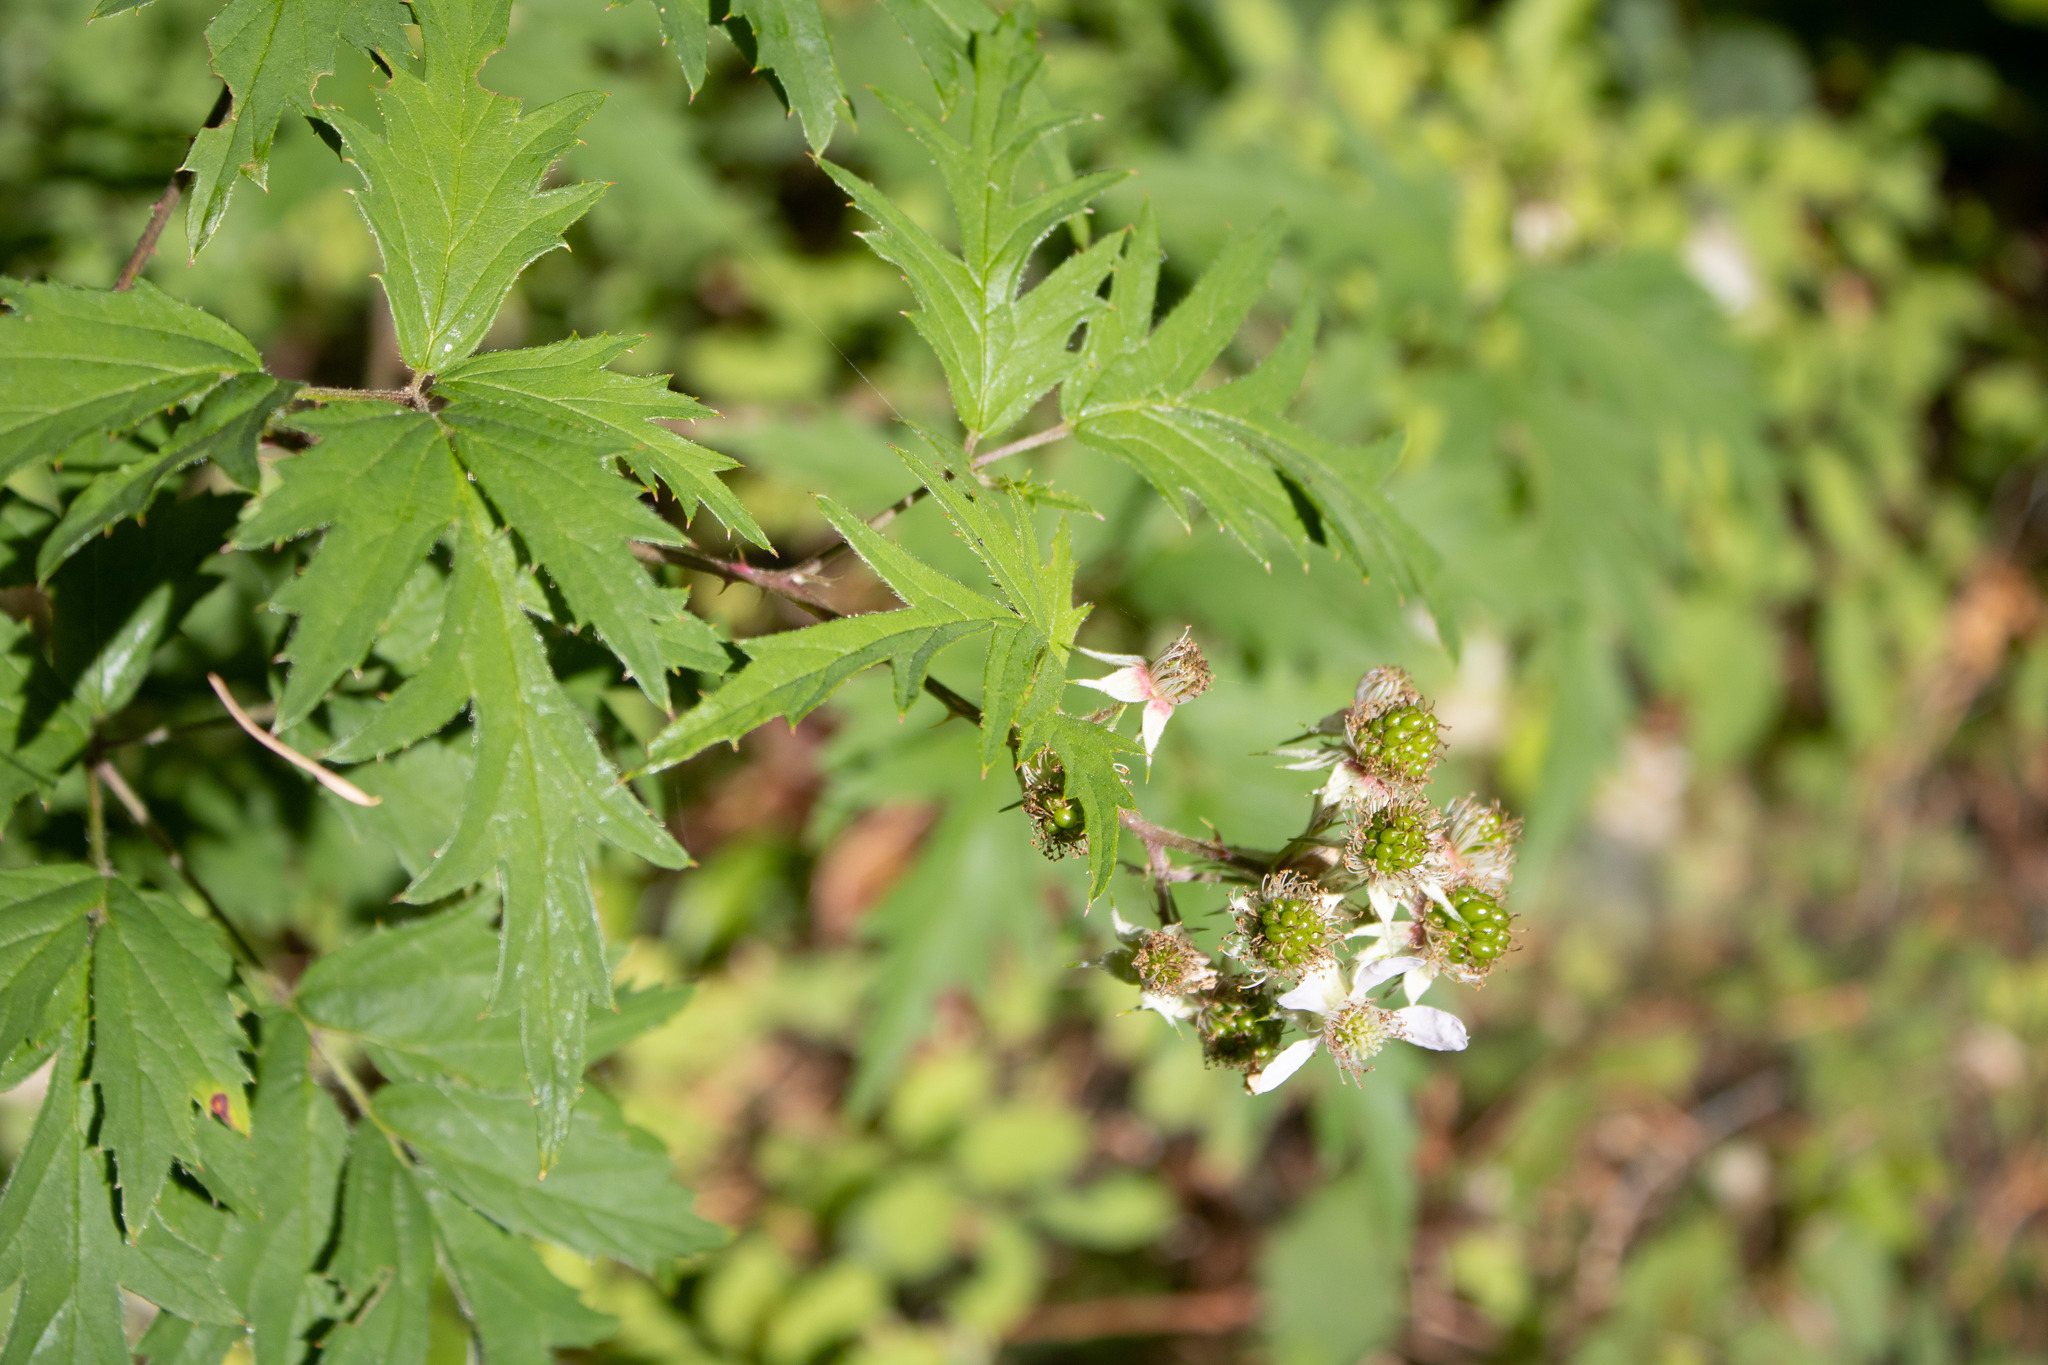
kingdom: Plantae
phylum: Tracheophyta
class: Magnoliopsida
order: Rosales
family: Rosaceae
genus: Rubus
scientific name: Rubus laciniatus
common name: Evergreen blackberry
